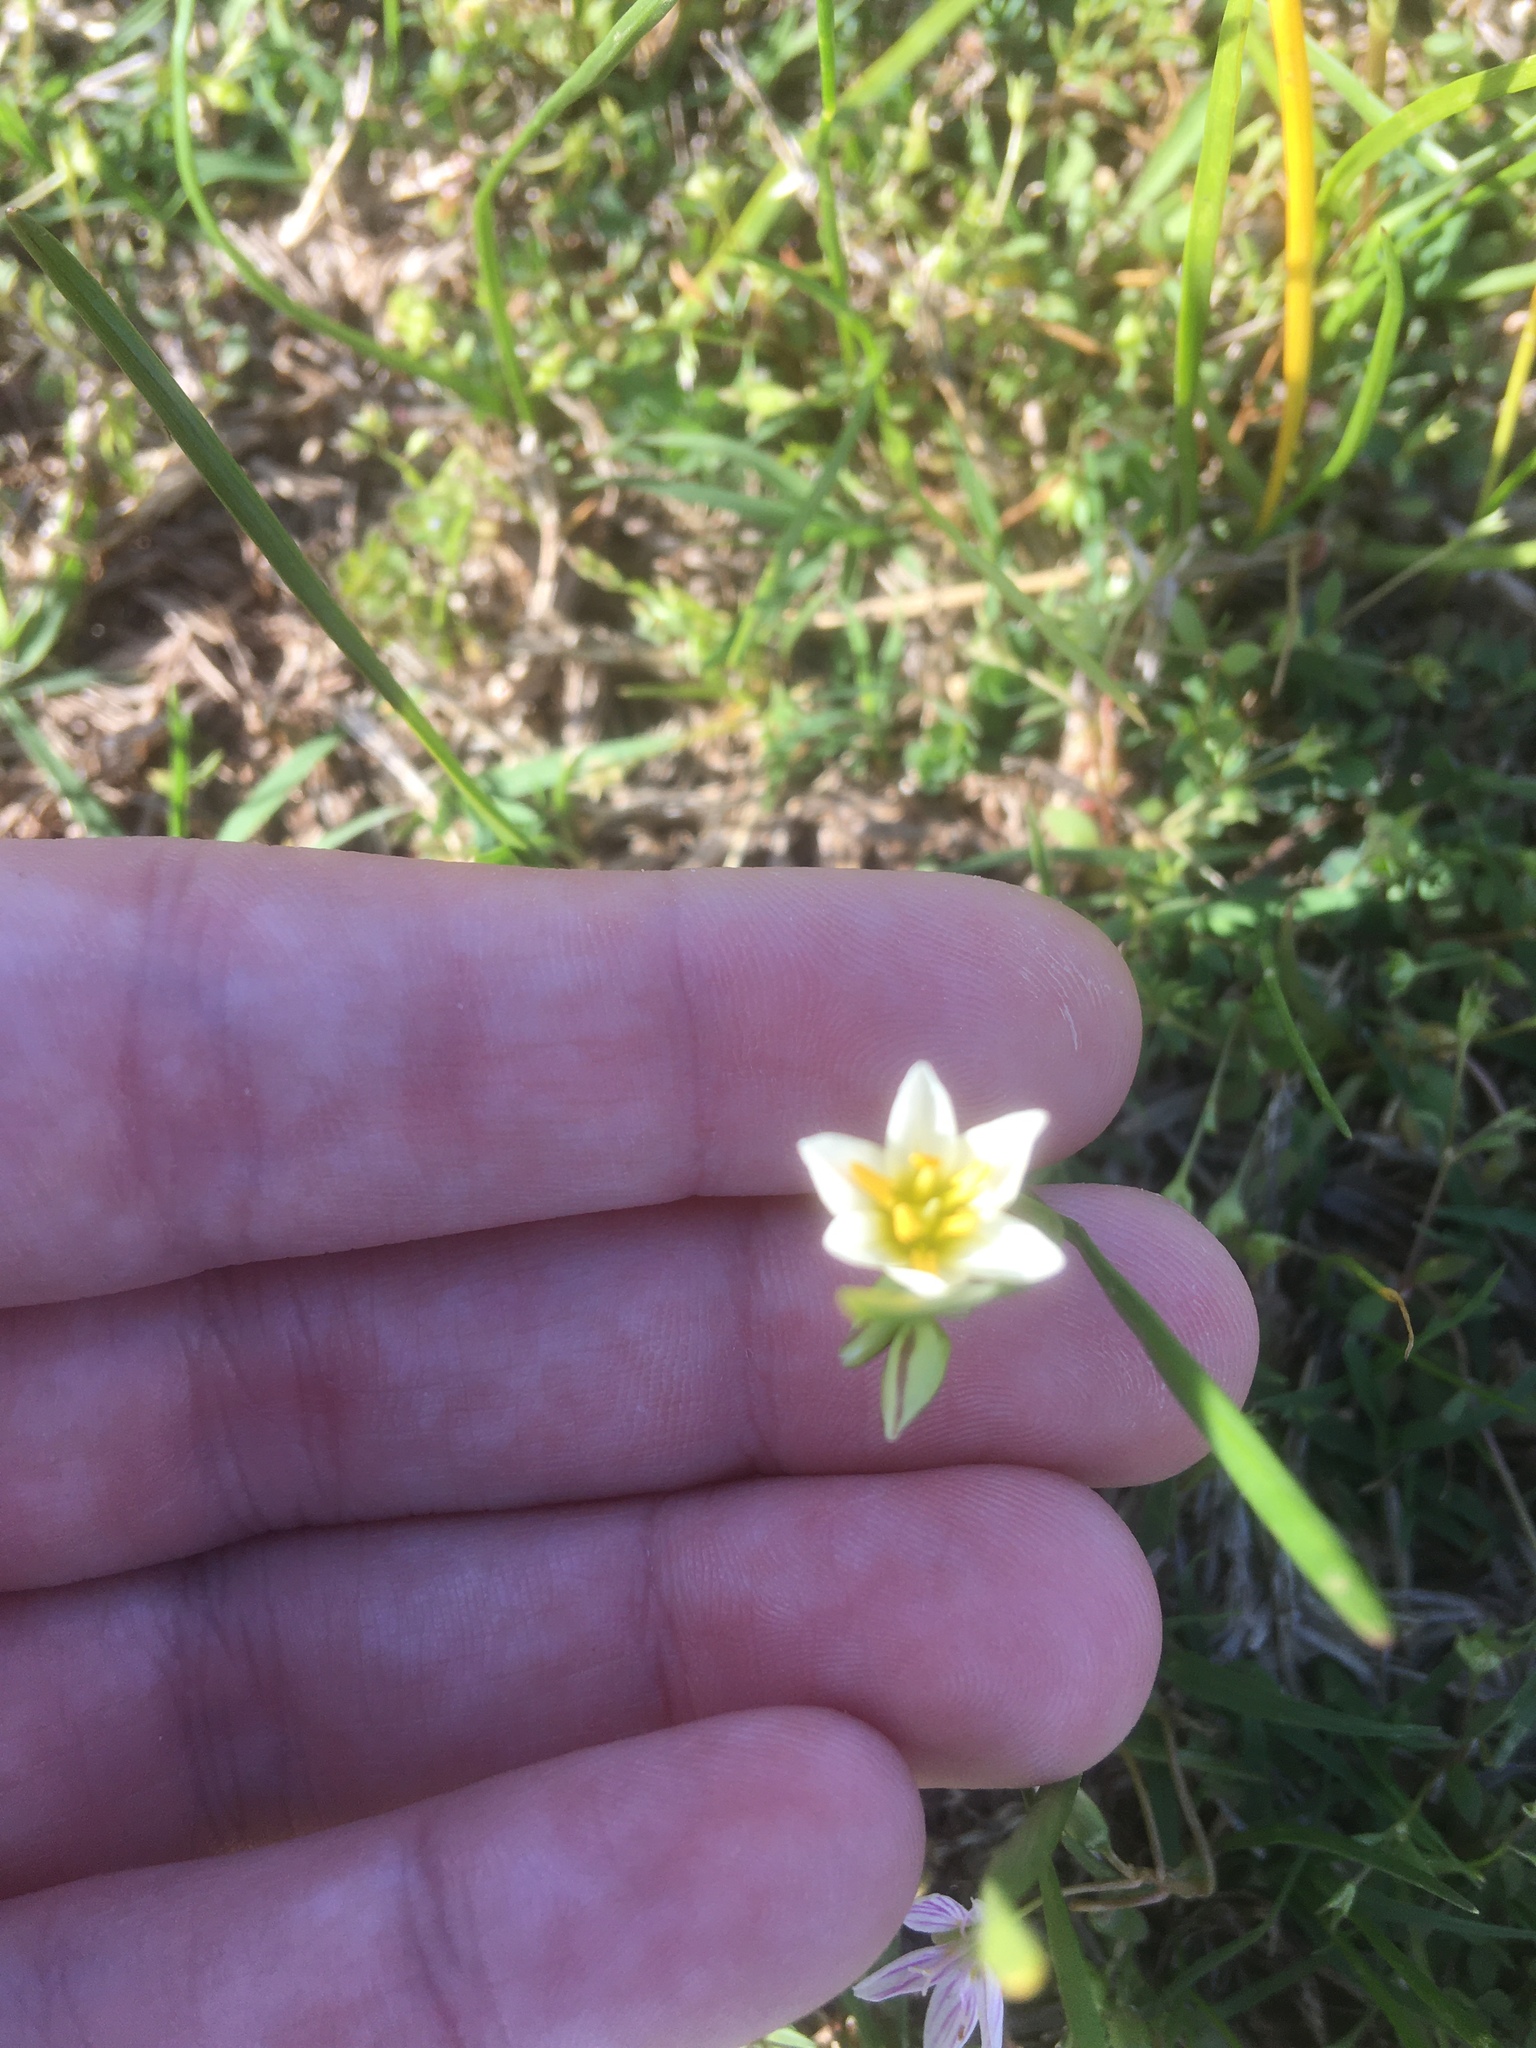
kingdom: Plantae
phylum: Tracheophyta
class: Liliopsida
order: Asparagales
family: Amaryllidaceae
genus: Nothoscordum
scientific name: Nothoscordum bivalve
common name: Crow-poison
